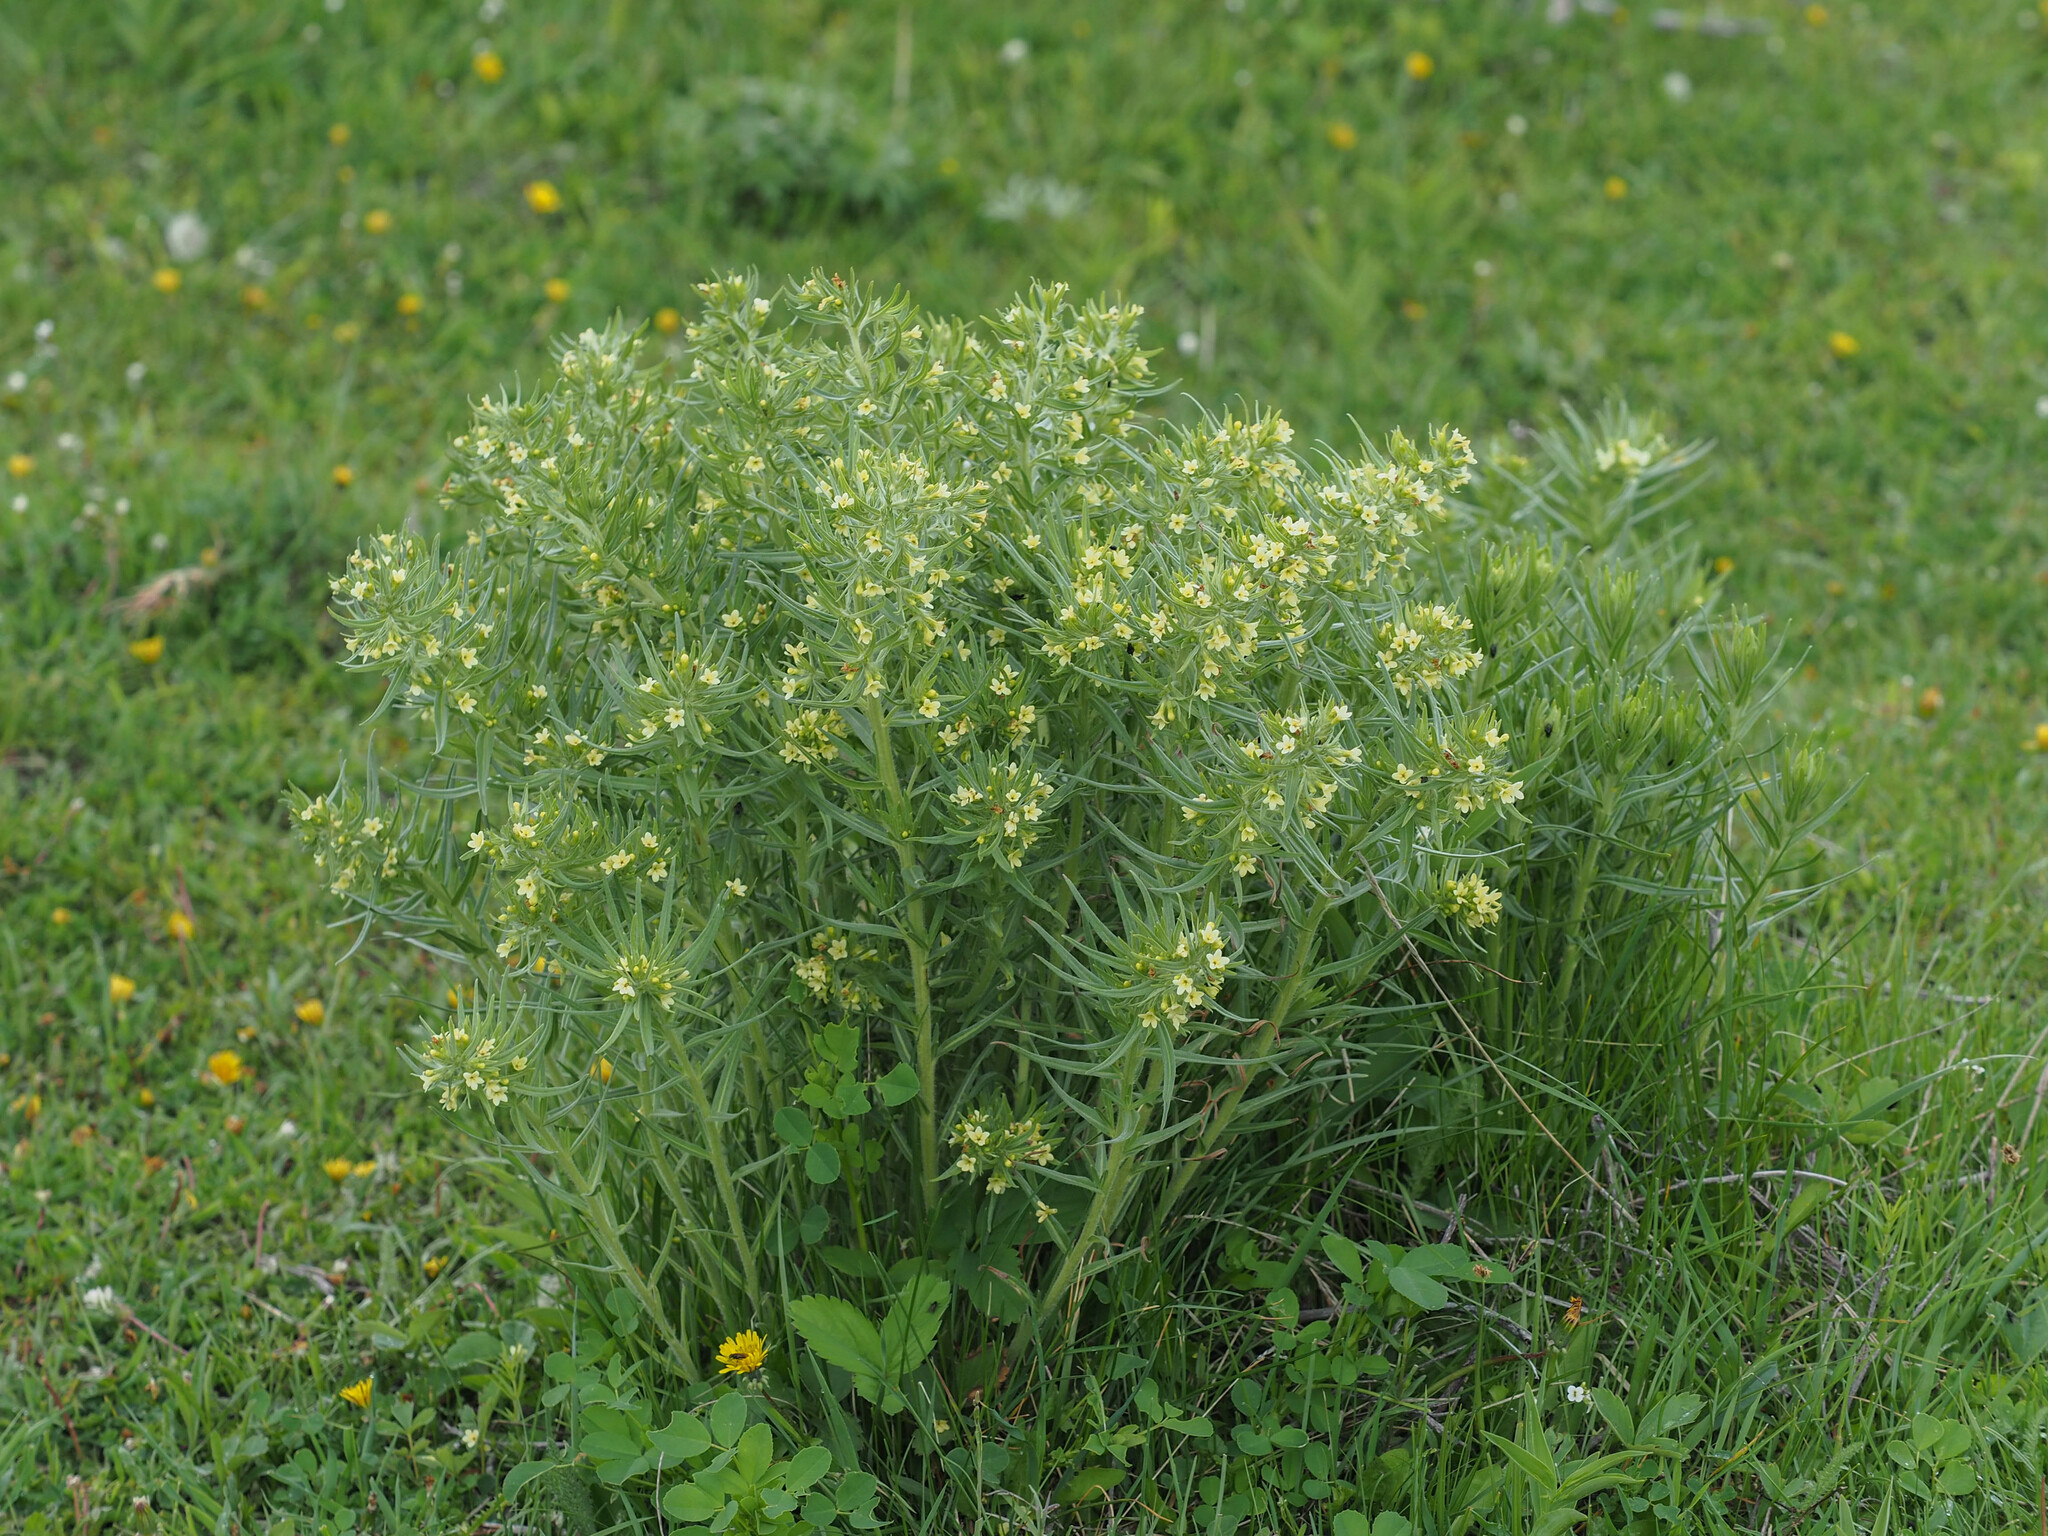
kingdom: Plantae
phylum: Tracheophyta
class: Magnoliopsida
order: Boraginales
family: Boraginaceae
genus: Lithospermum
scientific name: Lithospermum ruderale
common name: Western gromwell
